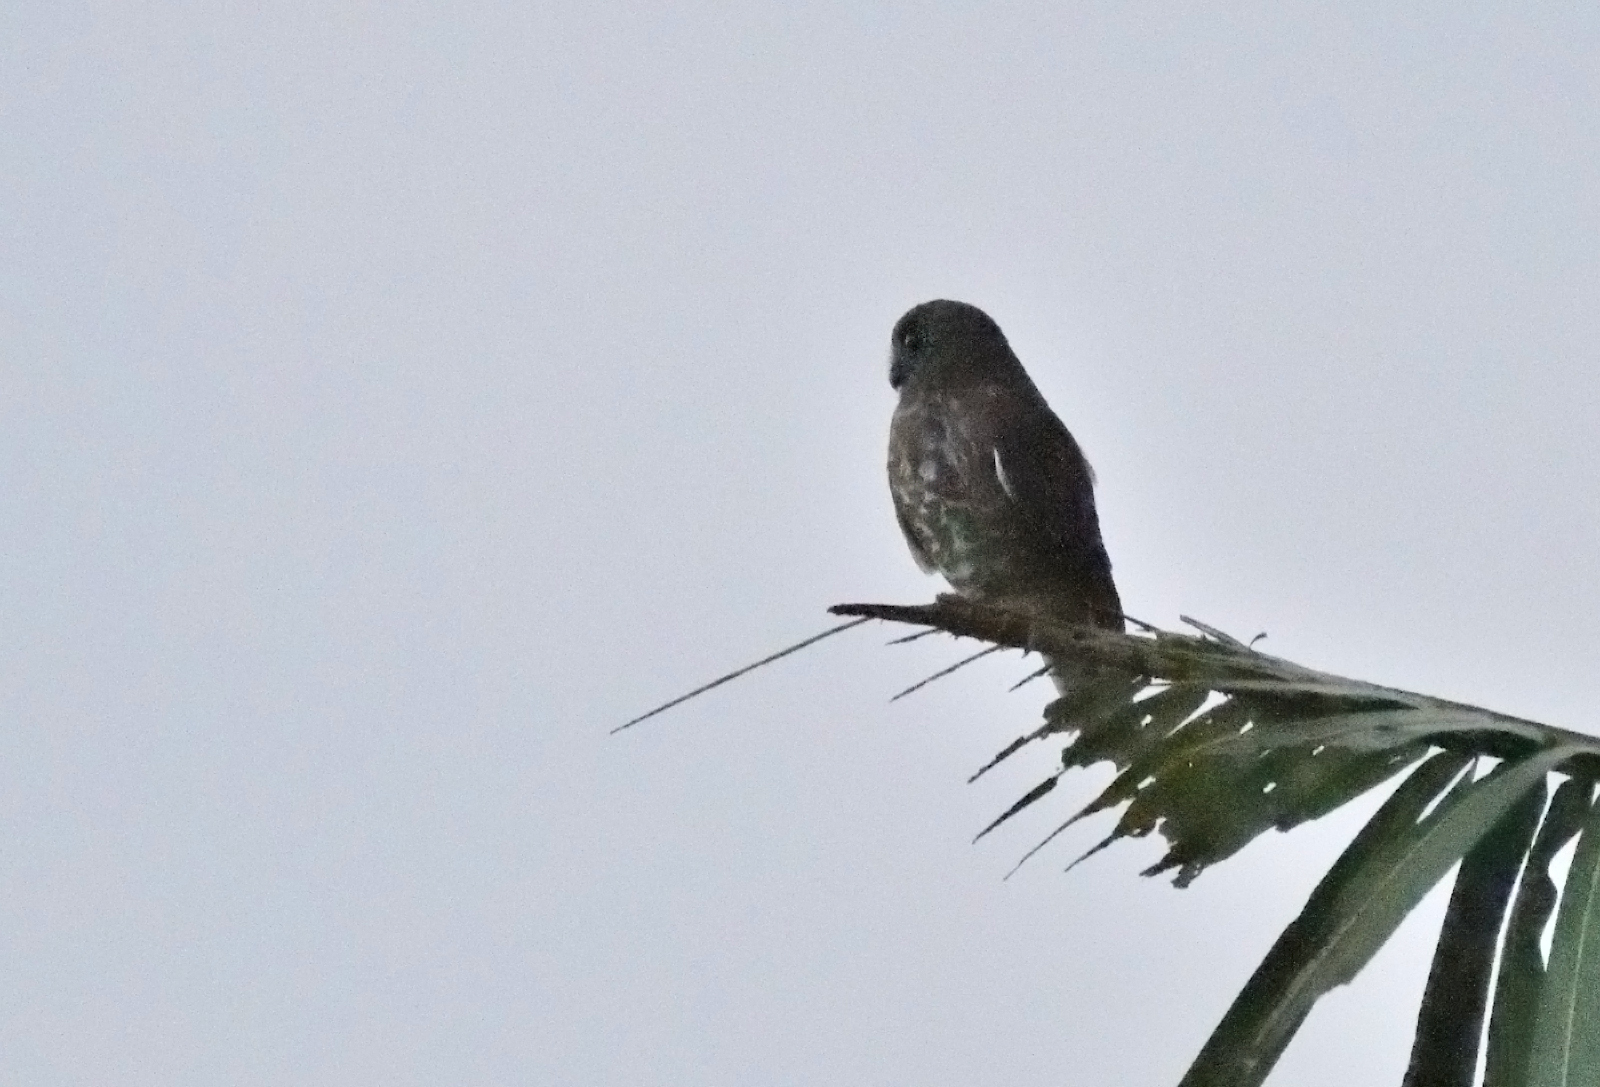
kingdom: Animalia
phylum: Chordata
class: Aves
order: Strigiformes
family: Strigidae
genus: Ninox
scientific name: Ninox scutulata
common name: Brown hawk-owl
